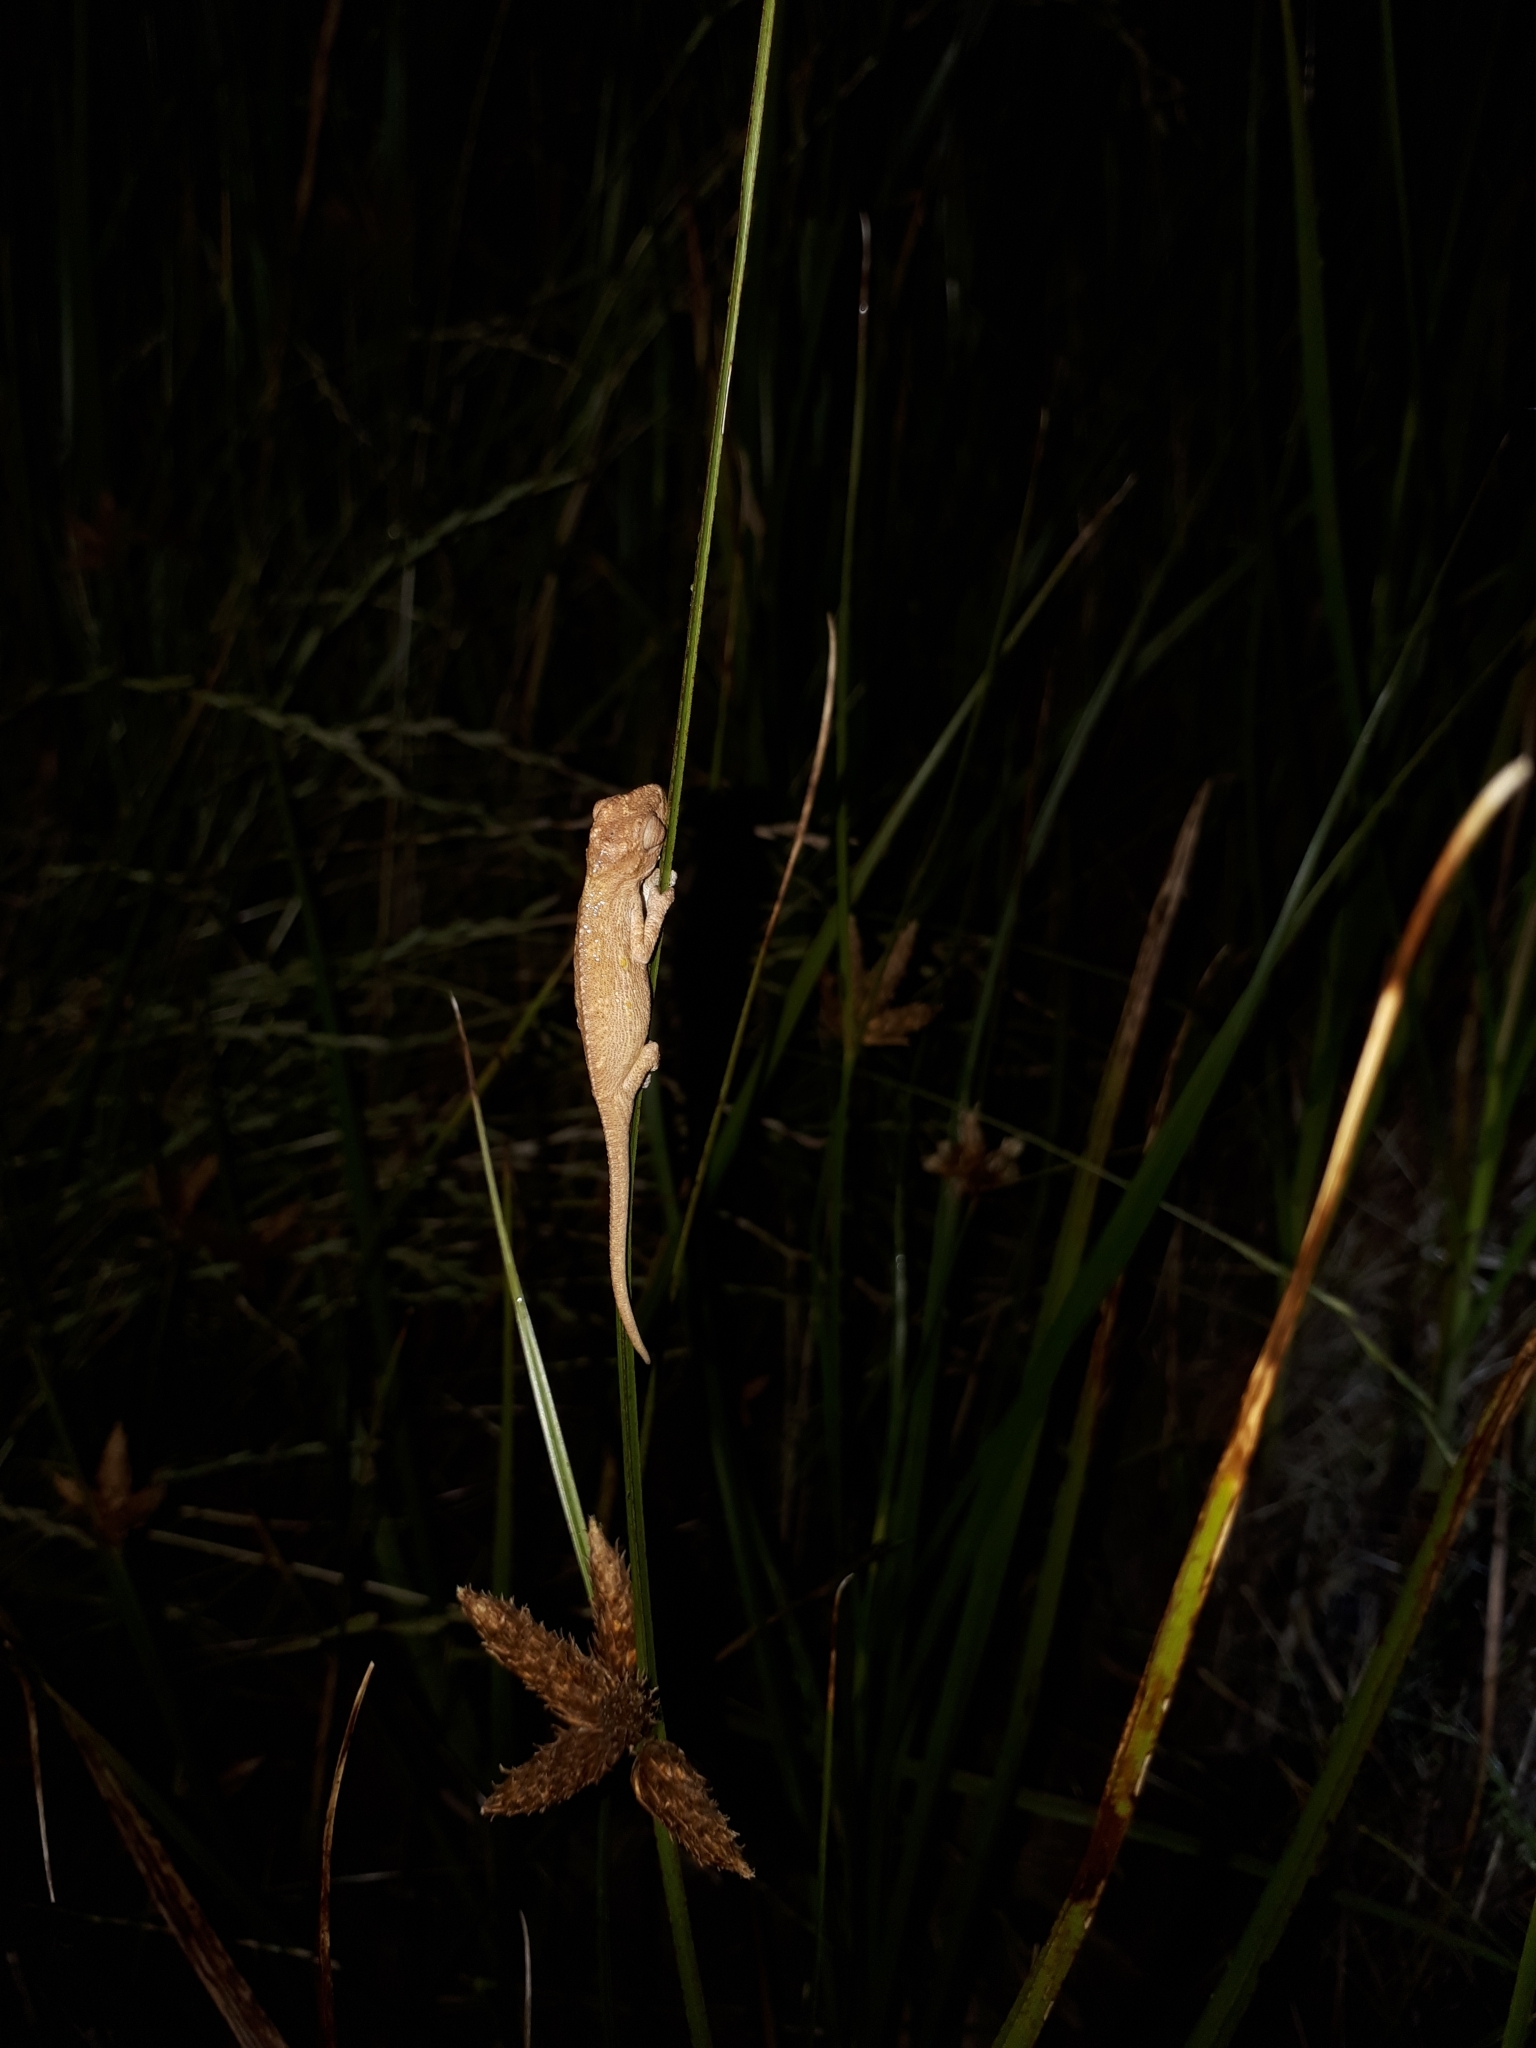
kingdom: Animalia
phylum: Chordata
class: Squamata
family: Chamaeleonidae
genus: Bradypodion
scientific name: Bradypodion pumilum
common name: Cape dwarf chameleon
